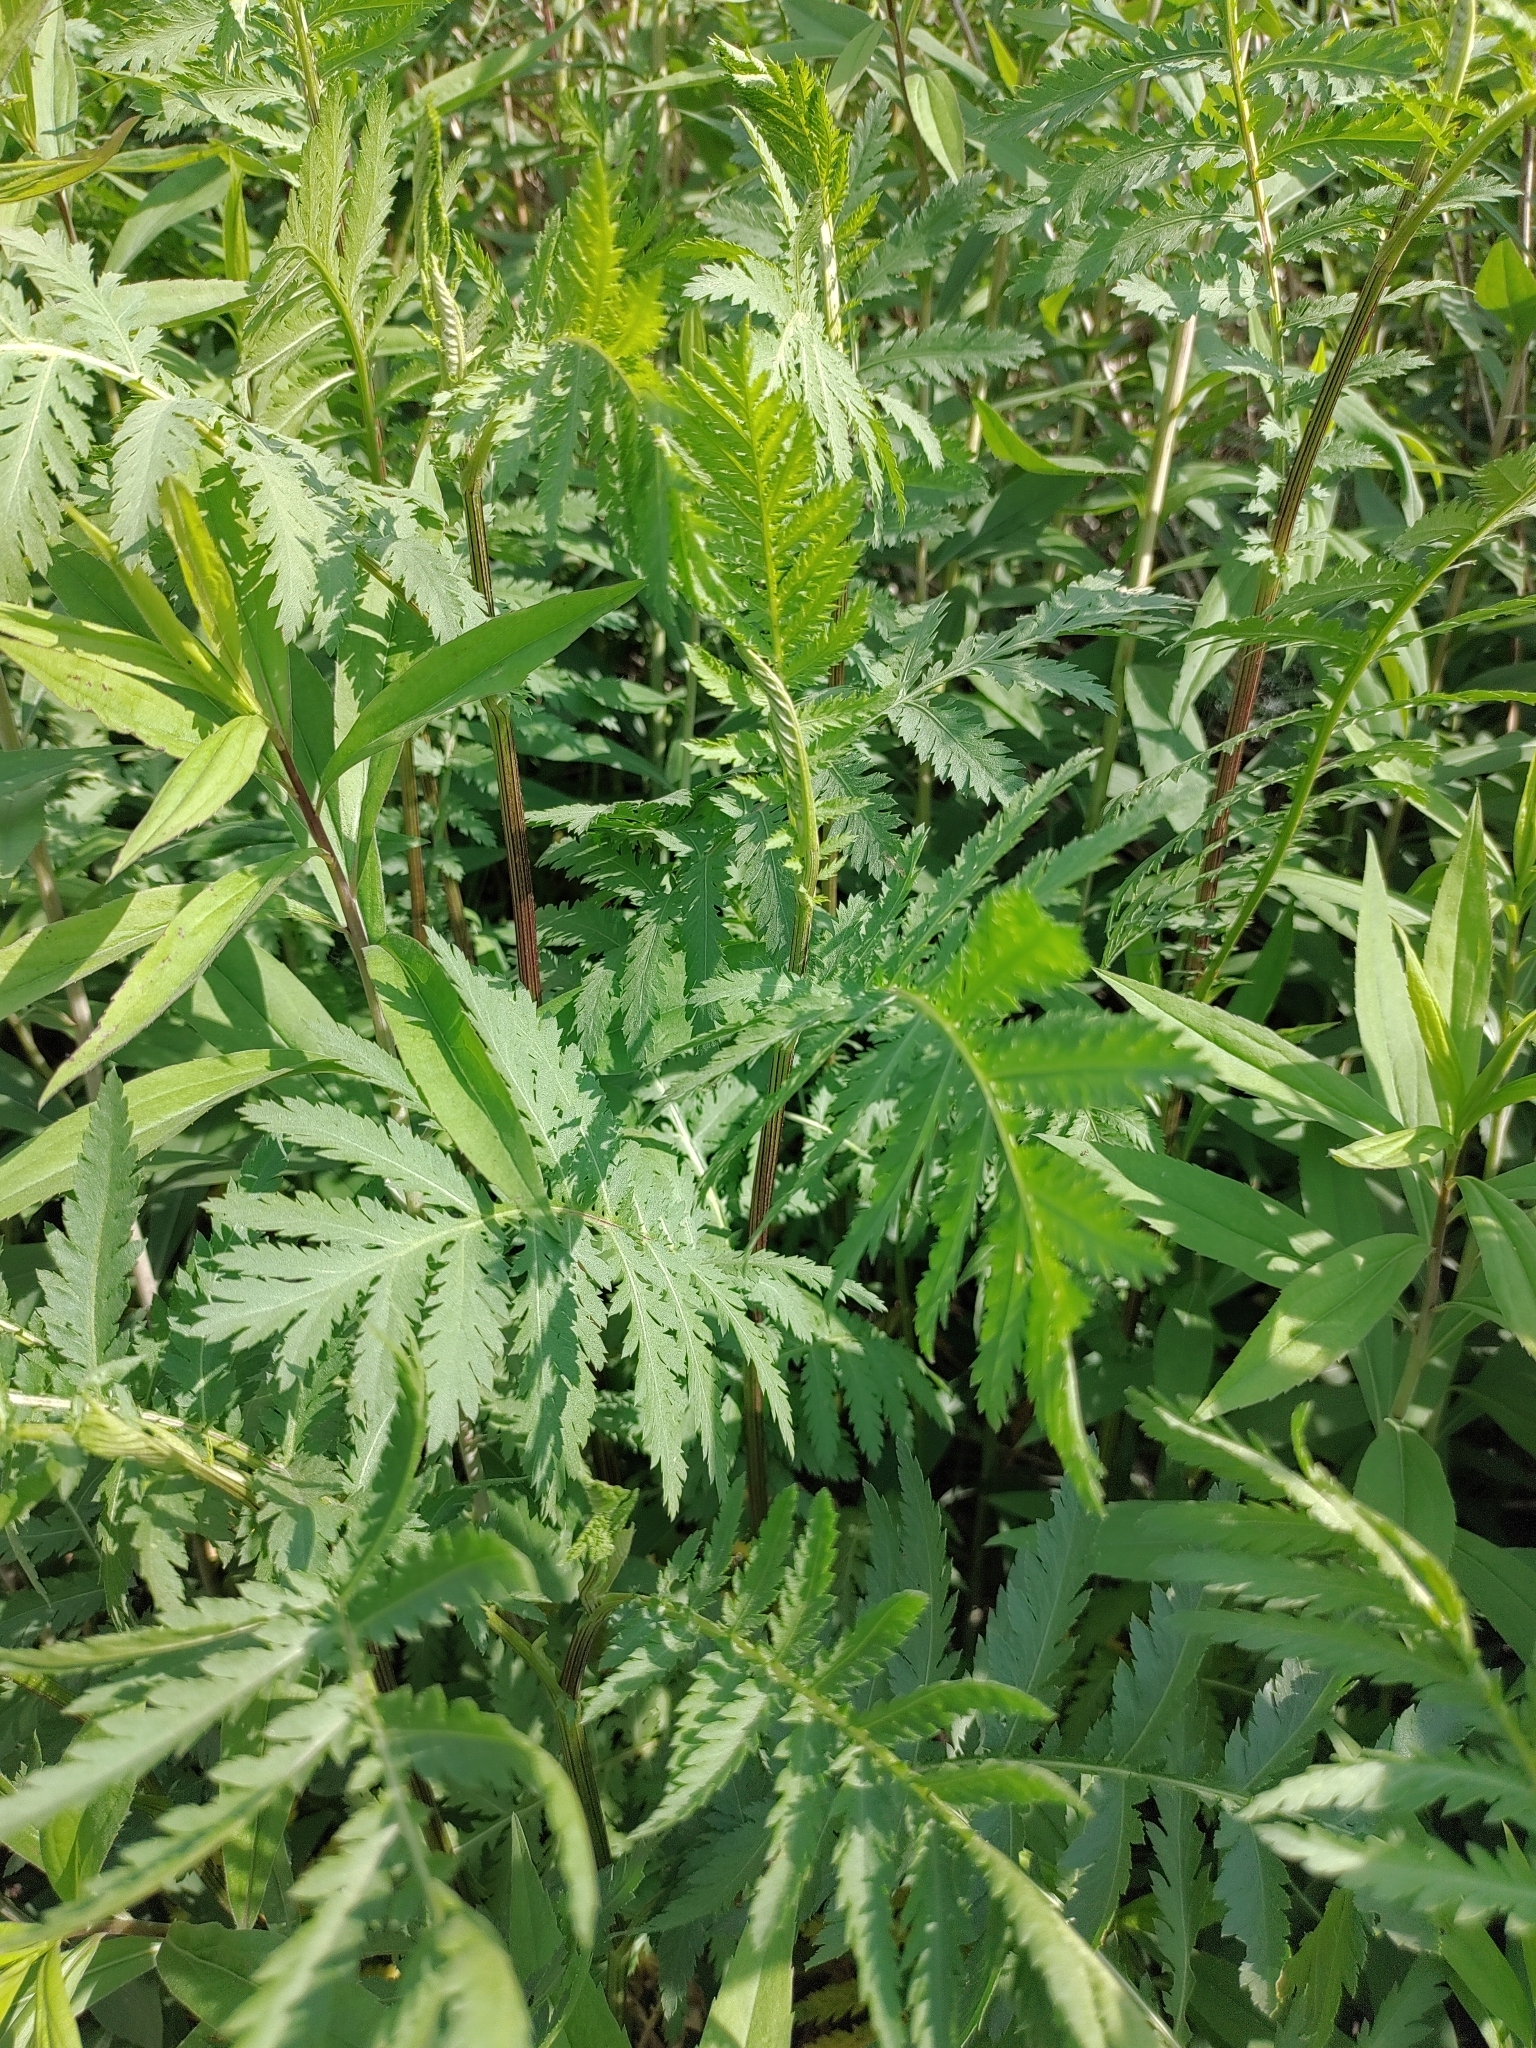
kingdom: Plantae
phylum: Tracheophyta
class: Magnoliopsida
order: Asterales
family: Asteraceae
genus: Tanacetum
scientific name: Tanacetum vulgare
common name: Common tansy
